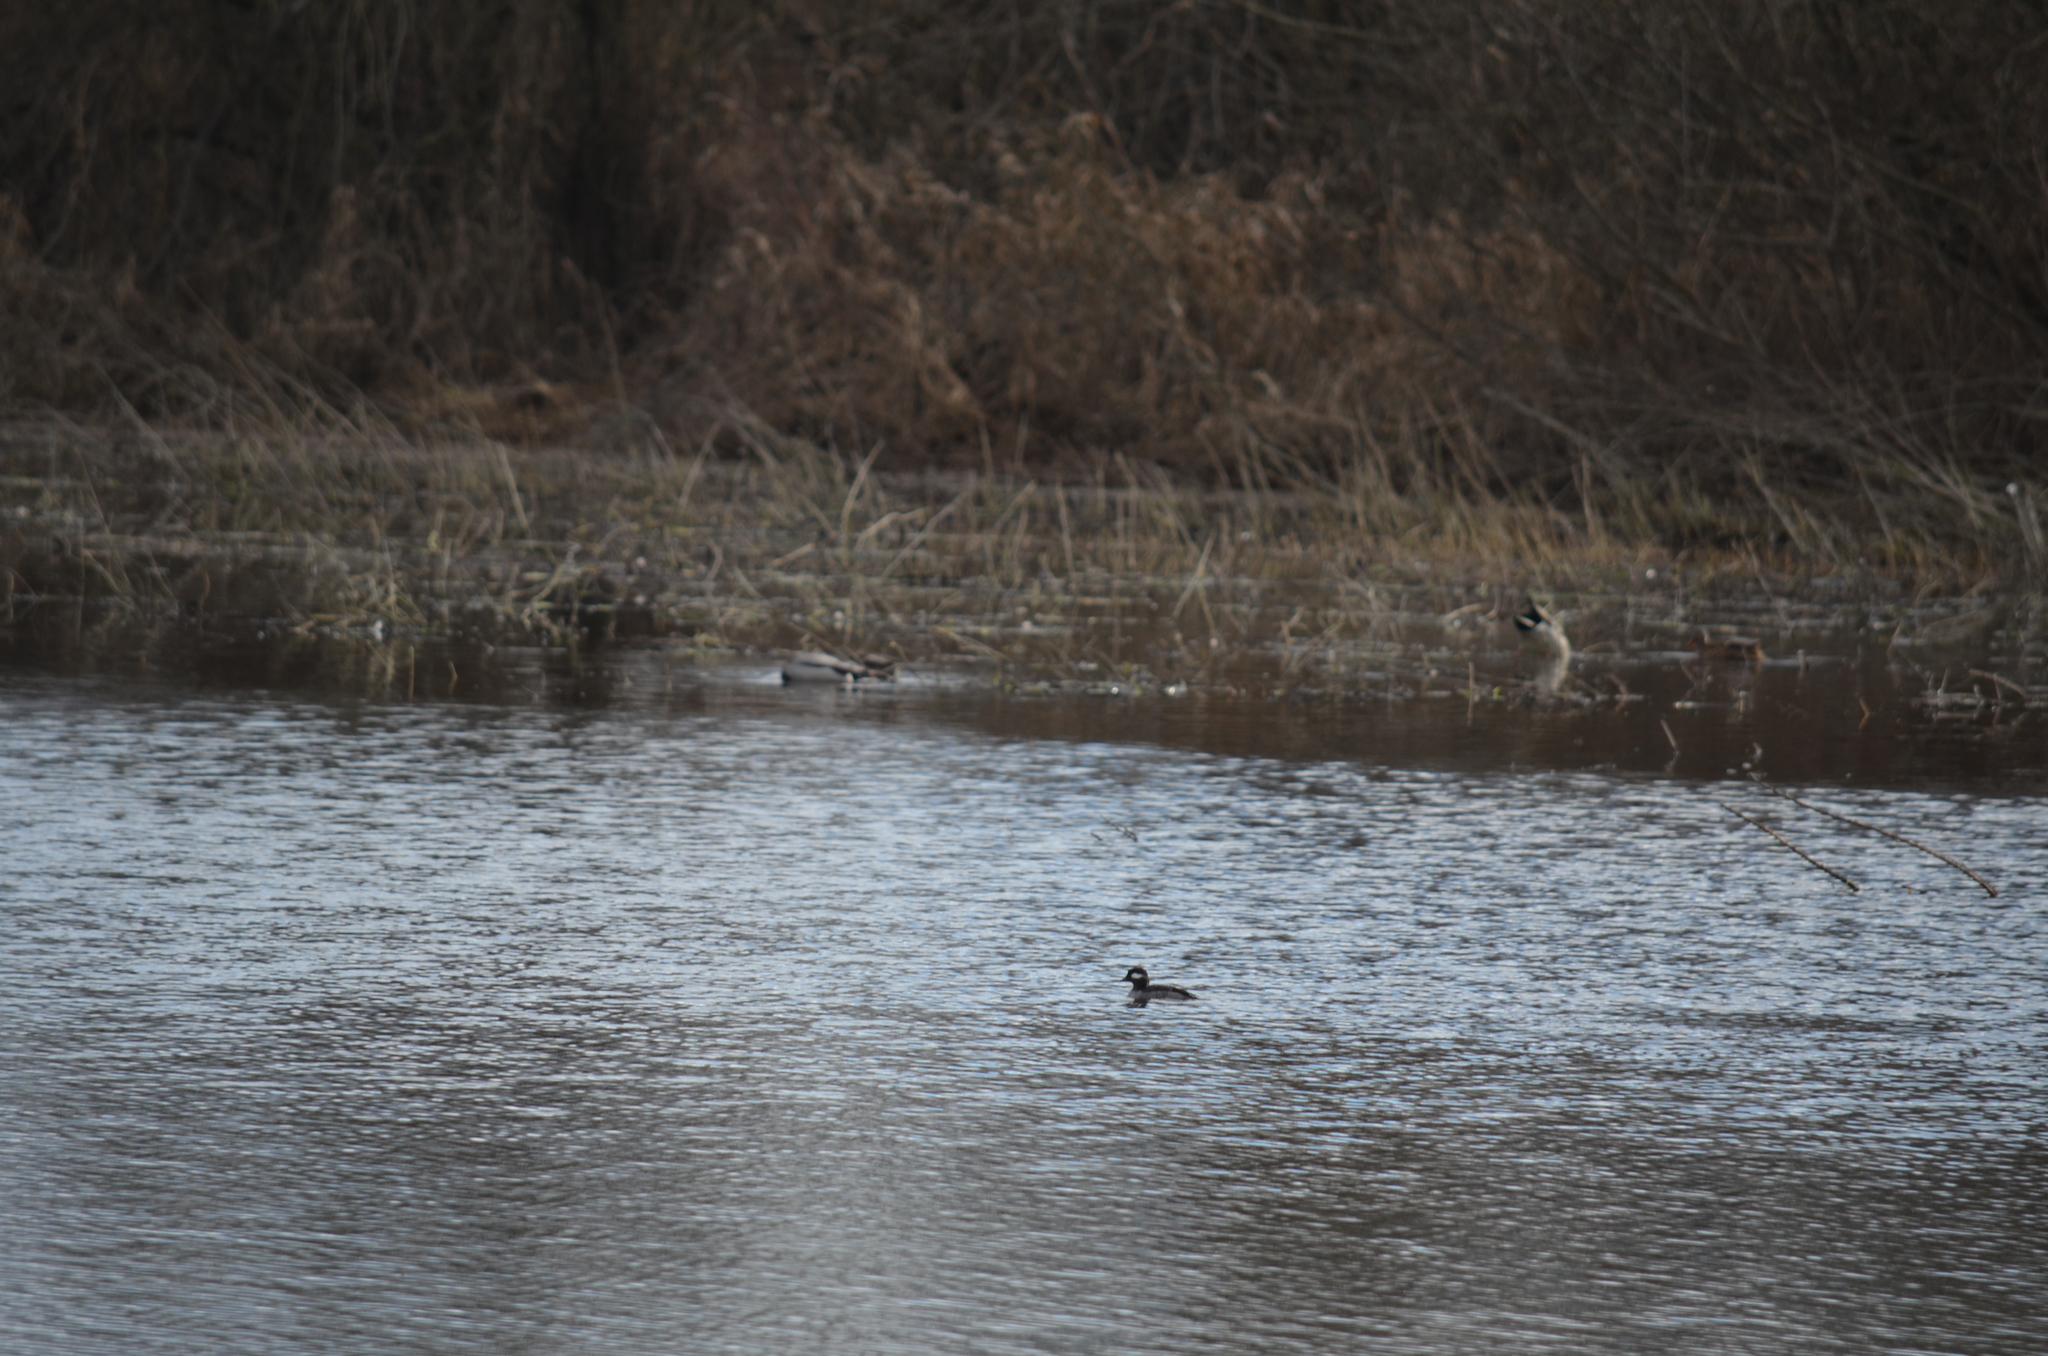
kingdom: Animalia
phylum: Chordata
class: Aves
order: Anseriformes
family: Anatidae
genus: Bucephala
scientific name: Bucephala albeola
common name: Bufflehead
